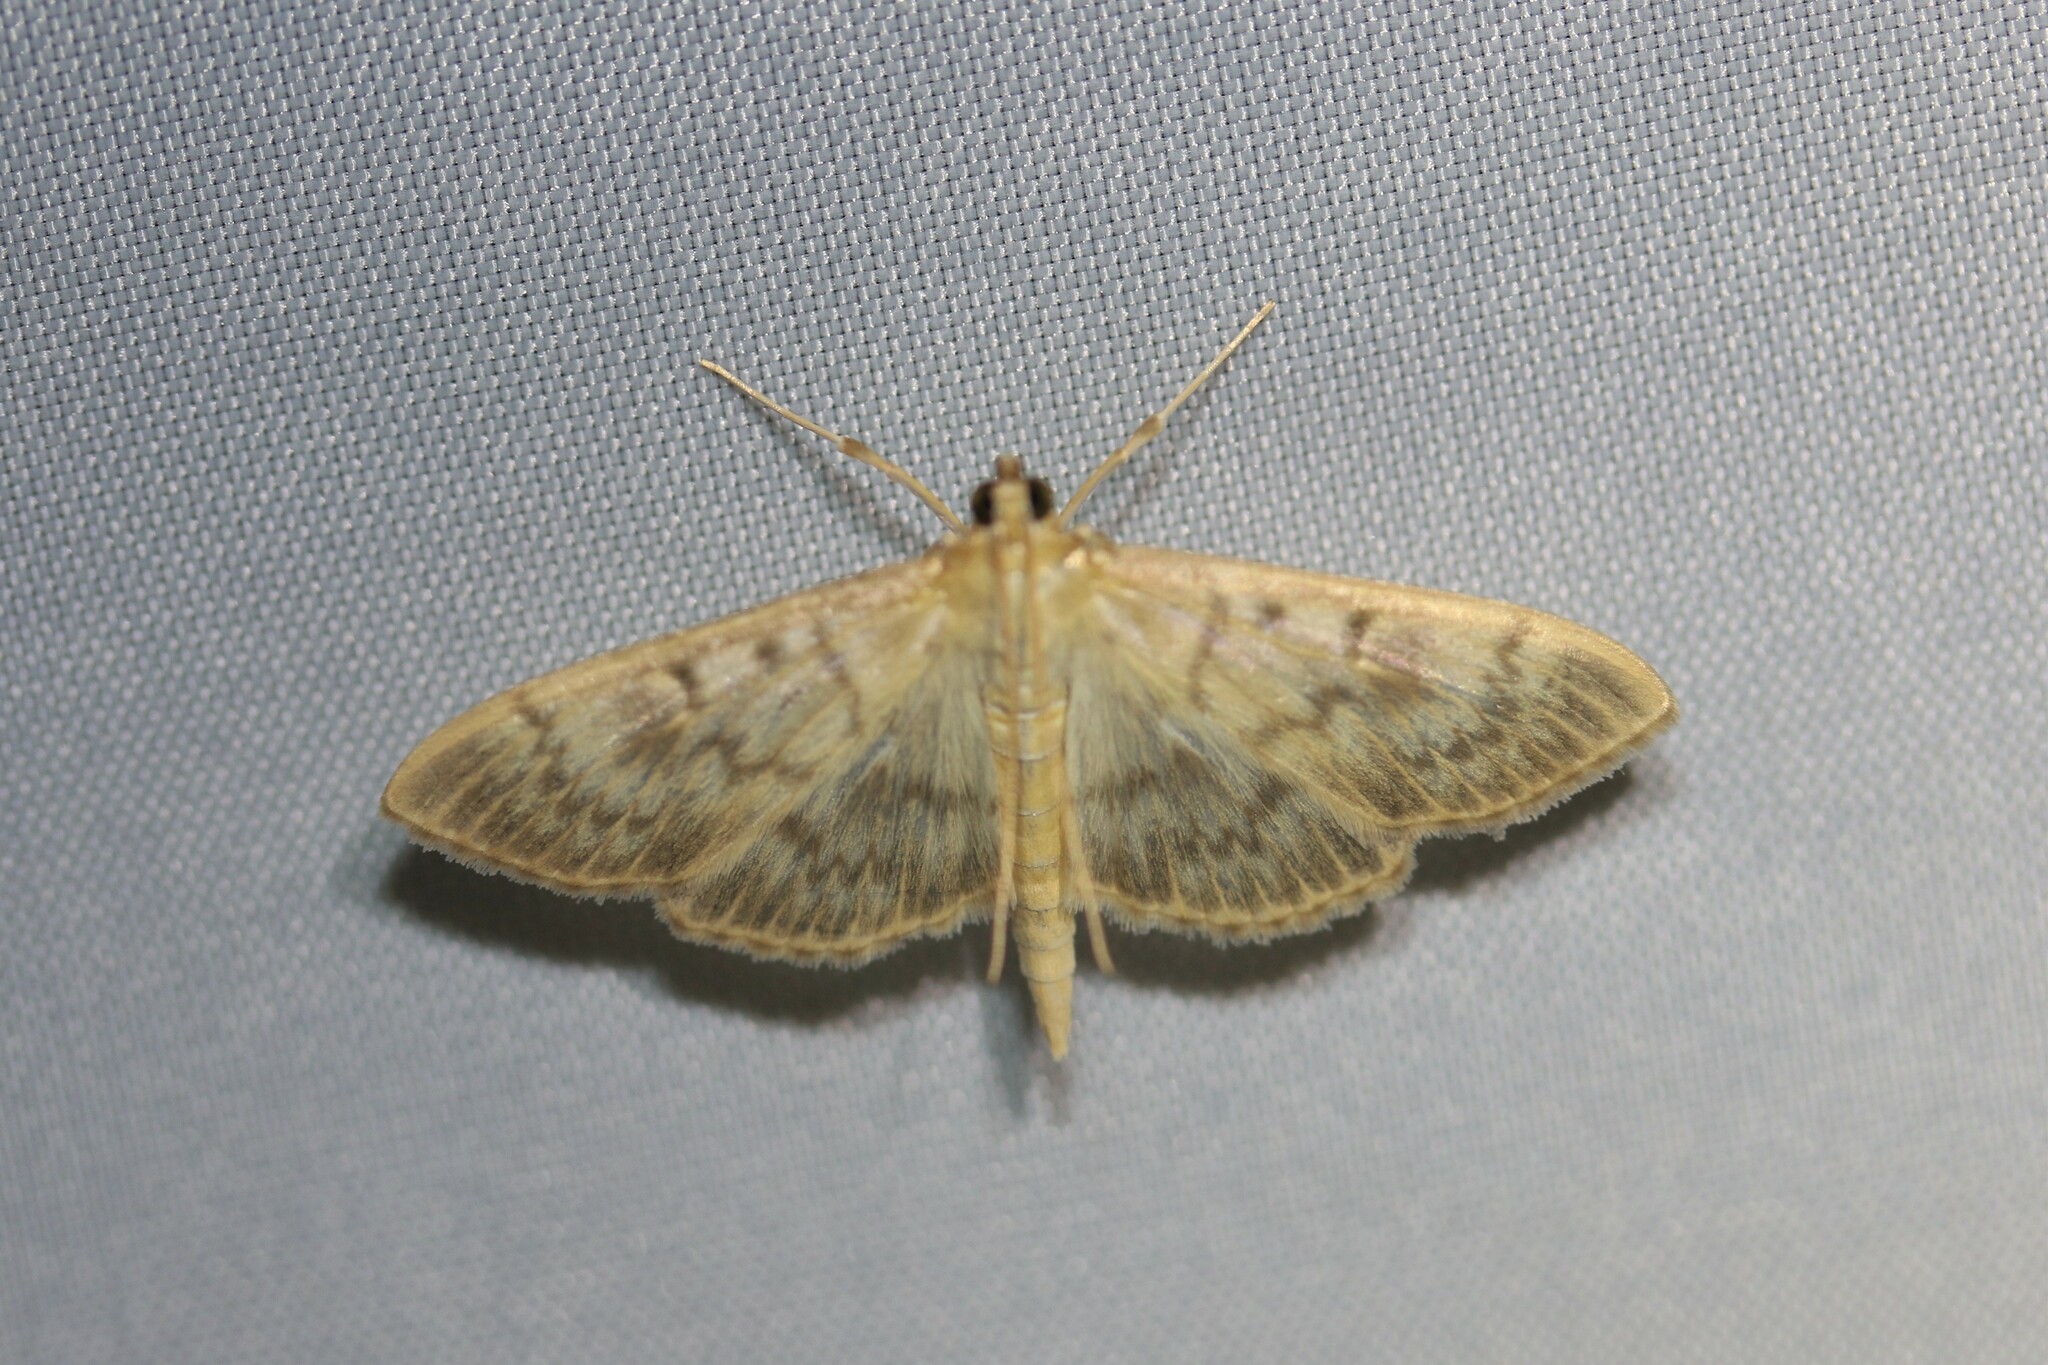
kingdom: Animalia
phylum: Arthropoda
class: Insecta
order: Lepidoptera
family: Crambidae
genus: Patania
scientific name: Patania ruralis
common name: Mother of pearl
